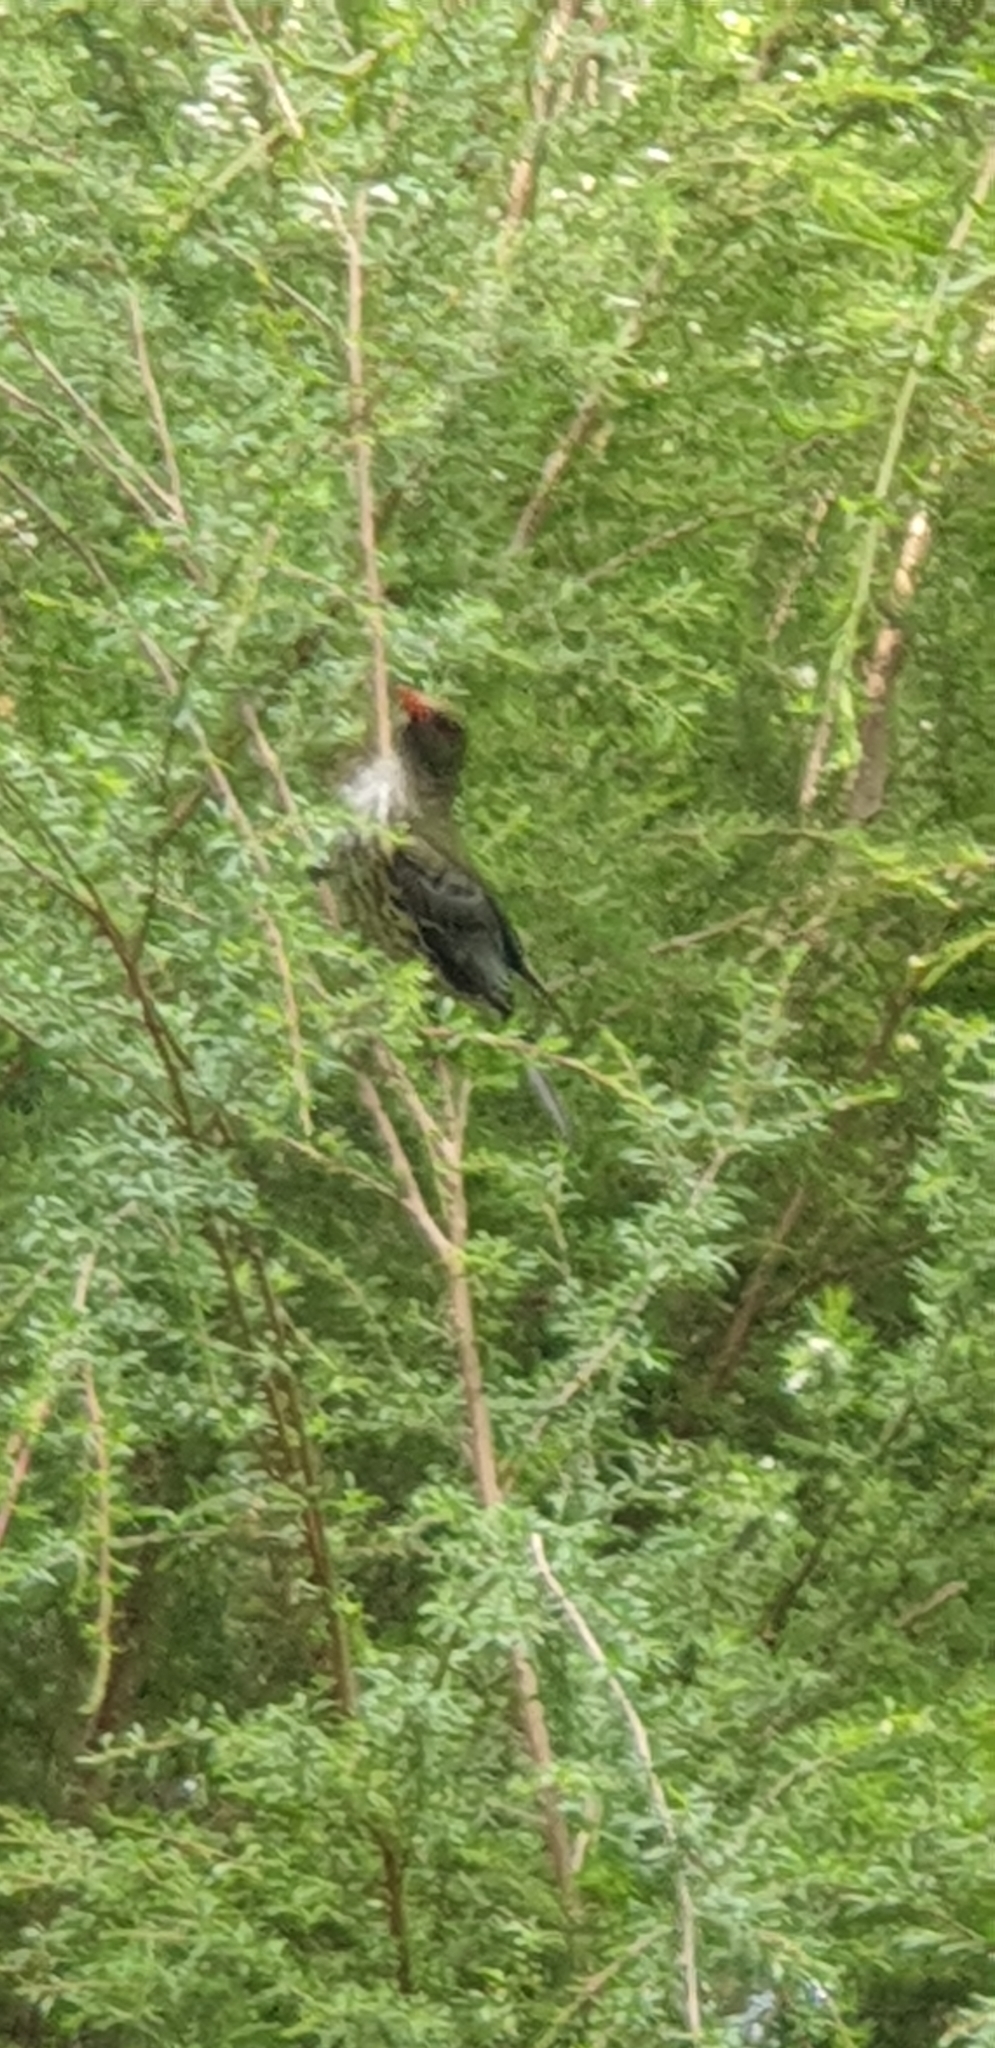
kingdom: Animalia
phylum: Chordata
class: Aves
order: Passeriformes
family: Oriolidae
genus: Oriolus
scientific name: Oriolus sagittatus
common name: Olive-backed oriole
